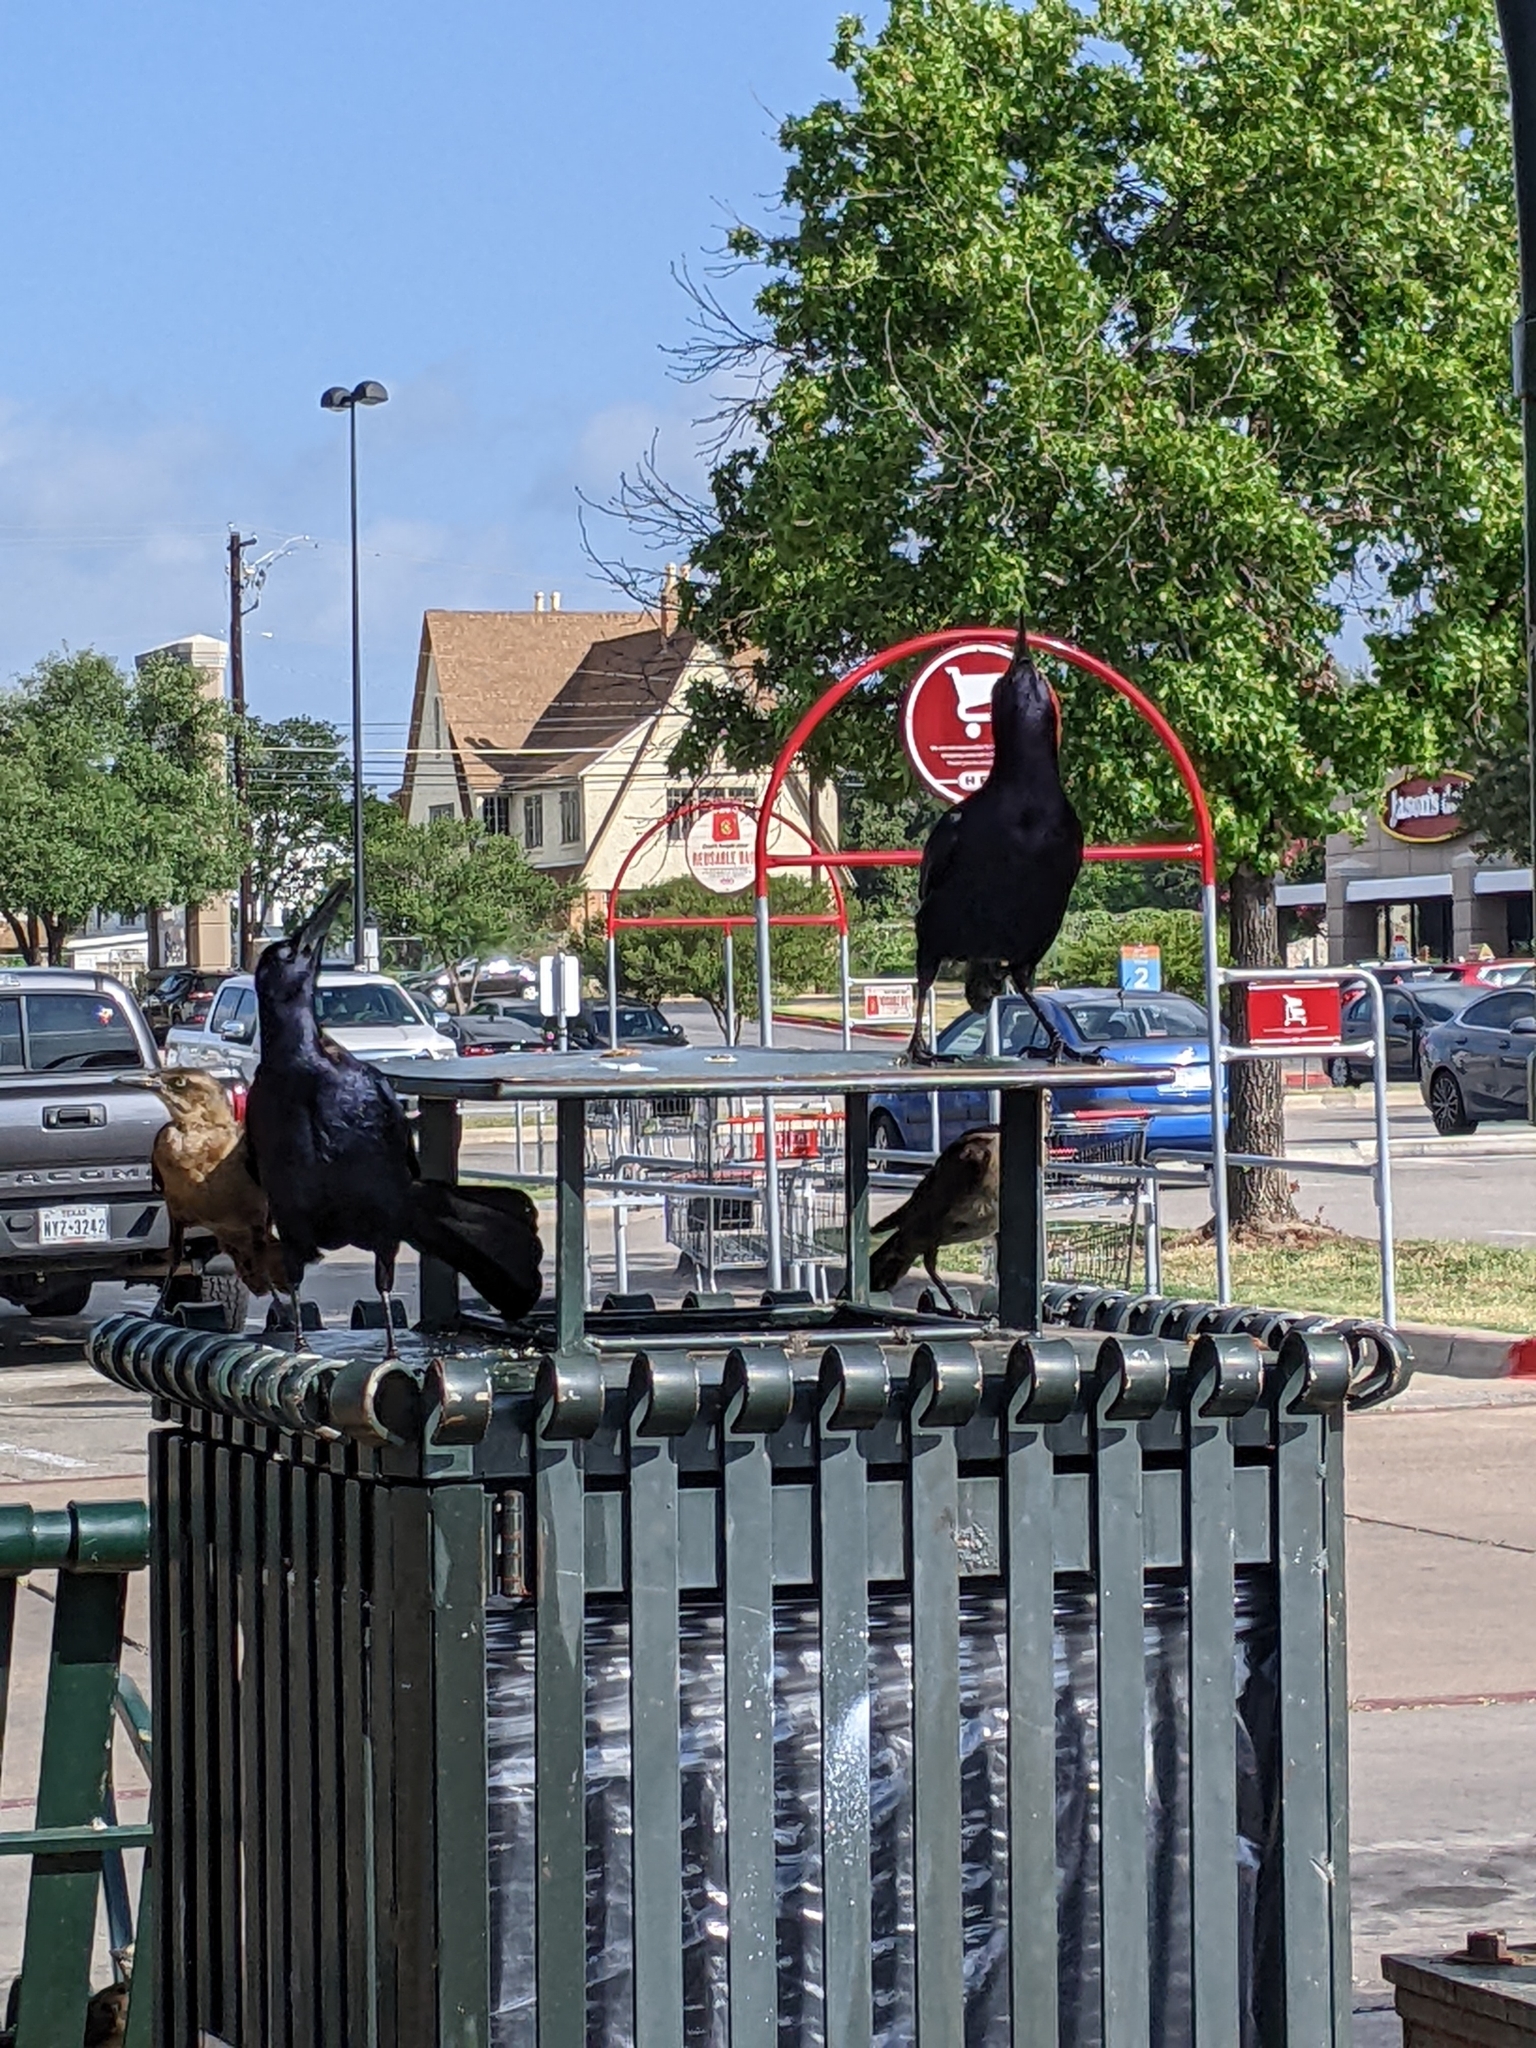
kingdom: Animalia
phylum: Chordata
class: Aves
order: Passeriformes
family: Icteridae
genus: Quiscalus
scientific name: Quiscalus mexicanus
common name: Great-tailed grackle
